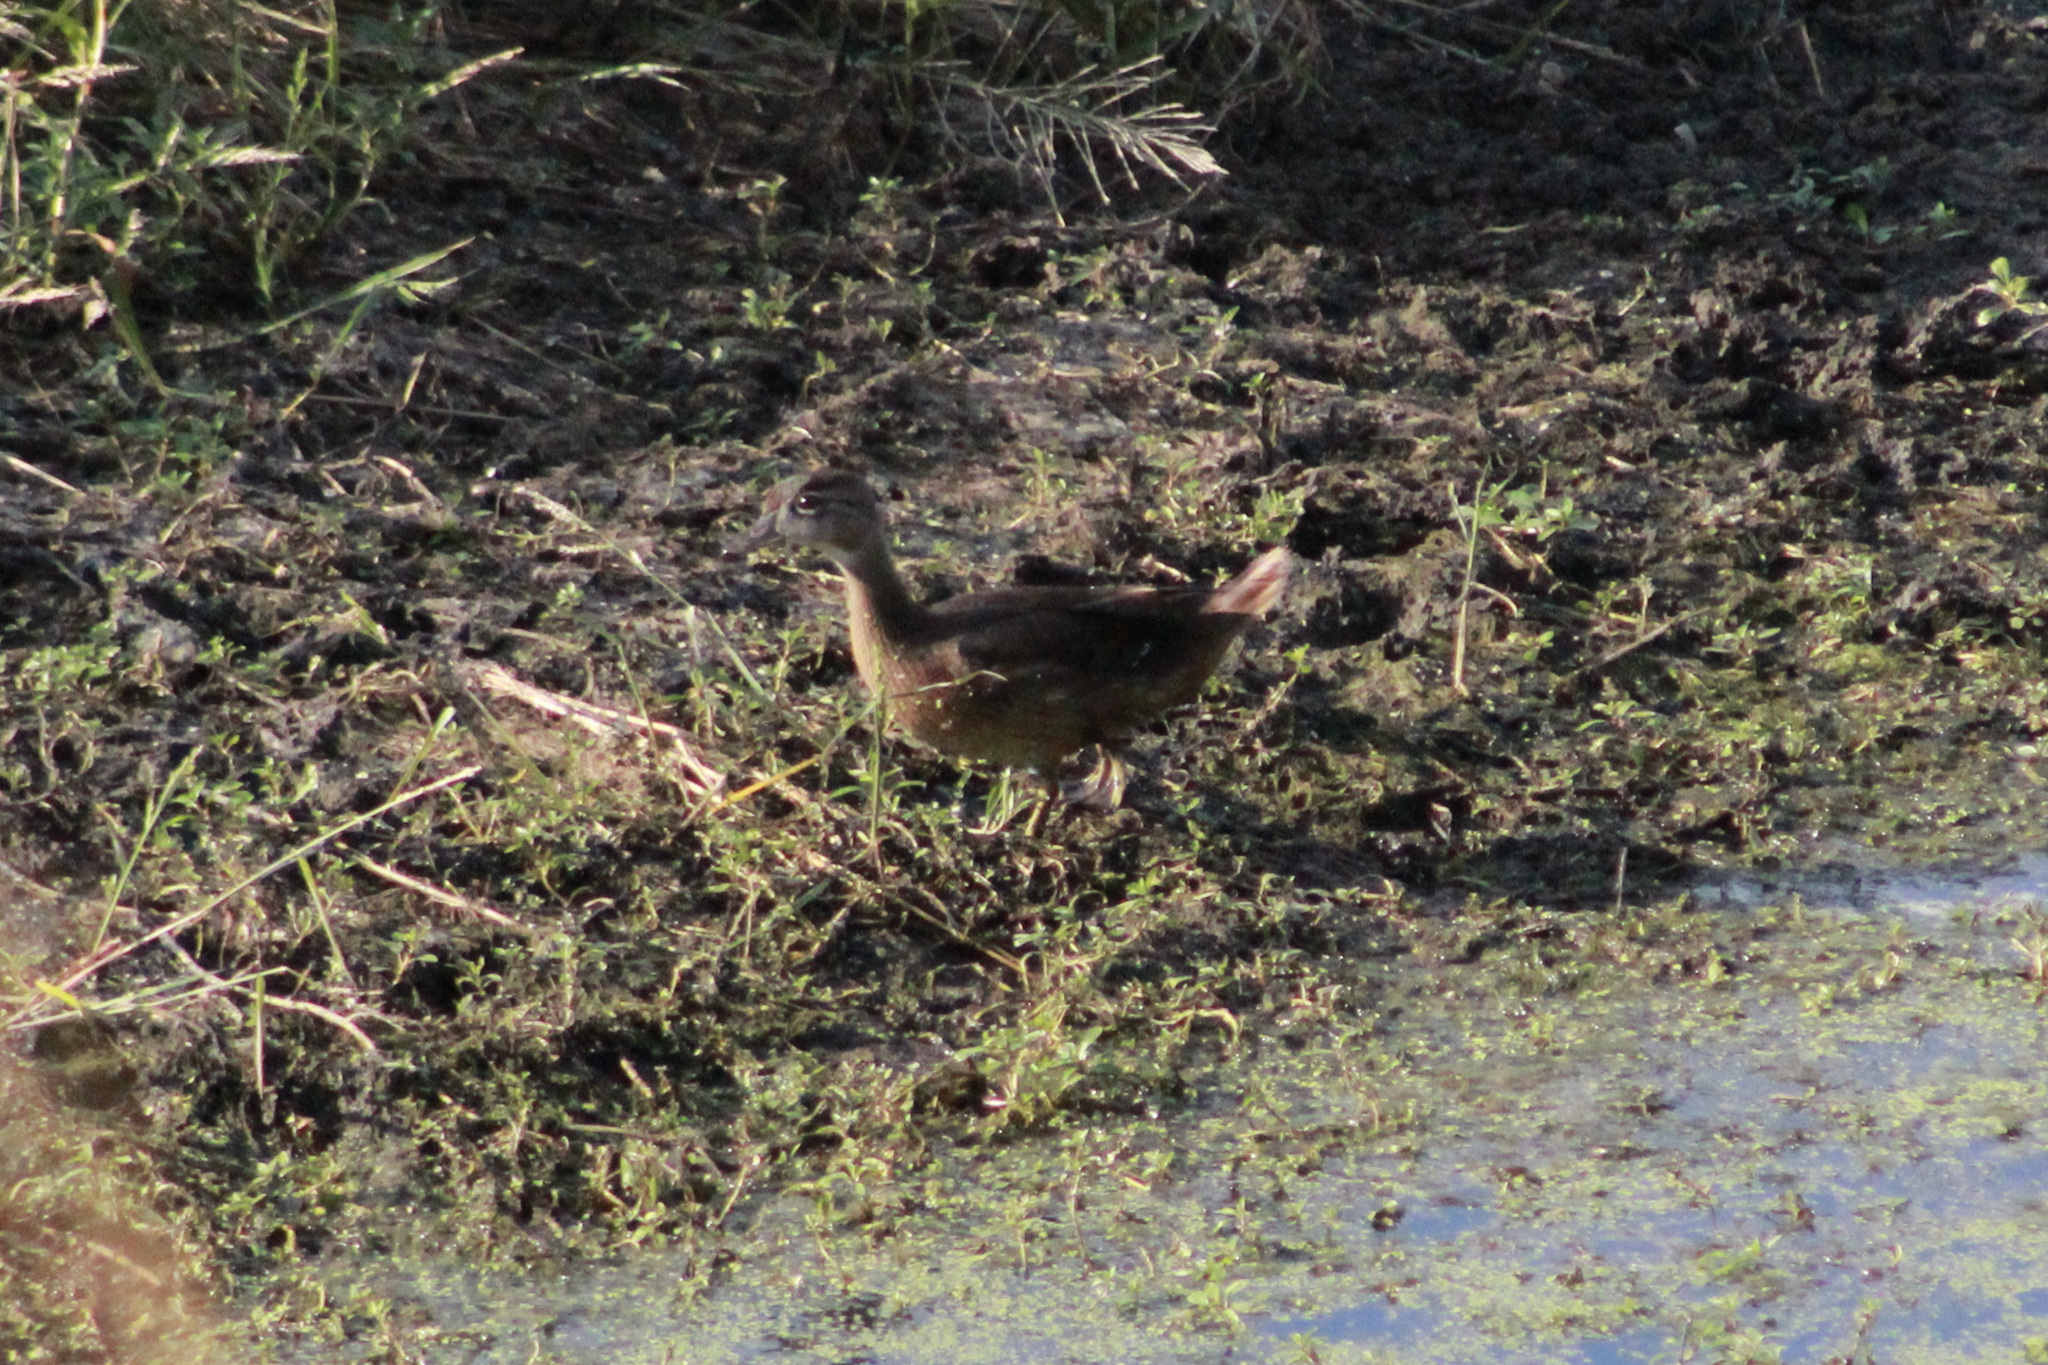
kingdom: Animalia
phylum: Chordata
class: Aves
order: Anseriformes
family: Anatidae
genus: Aix
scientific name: Aix sponsa
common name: Wood duck
